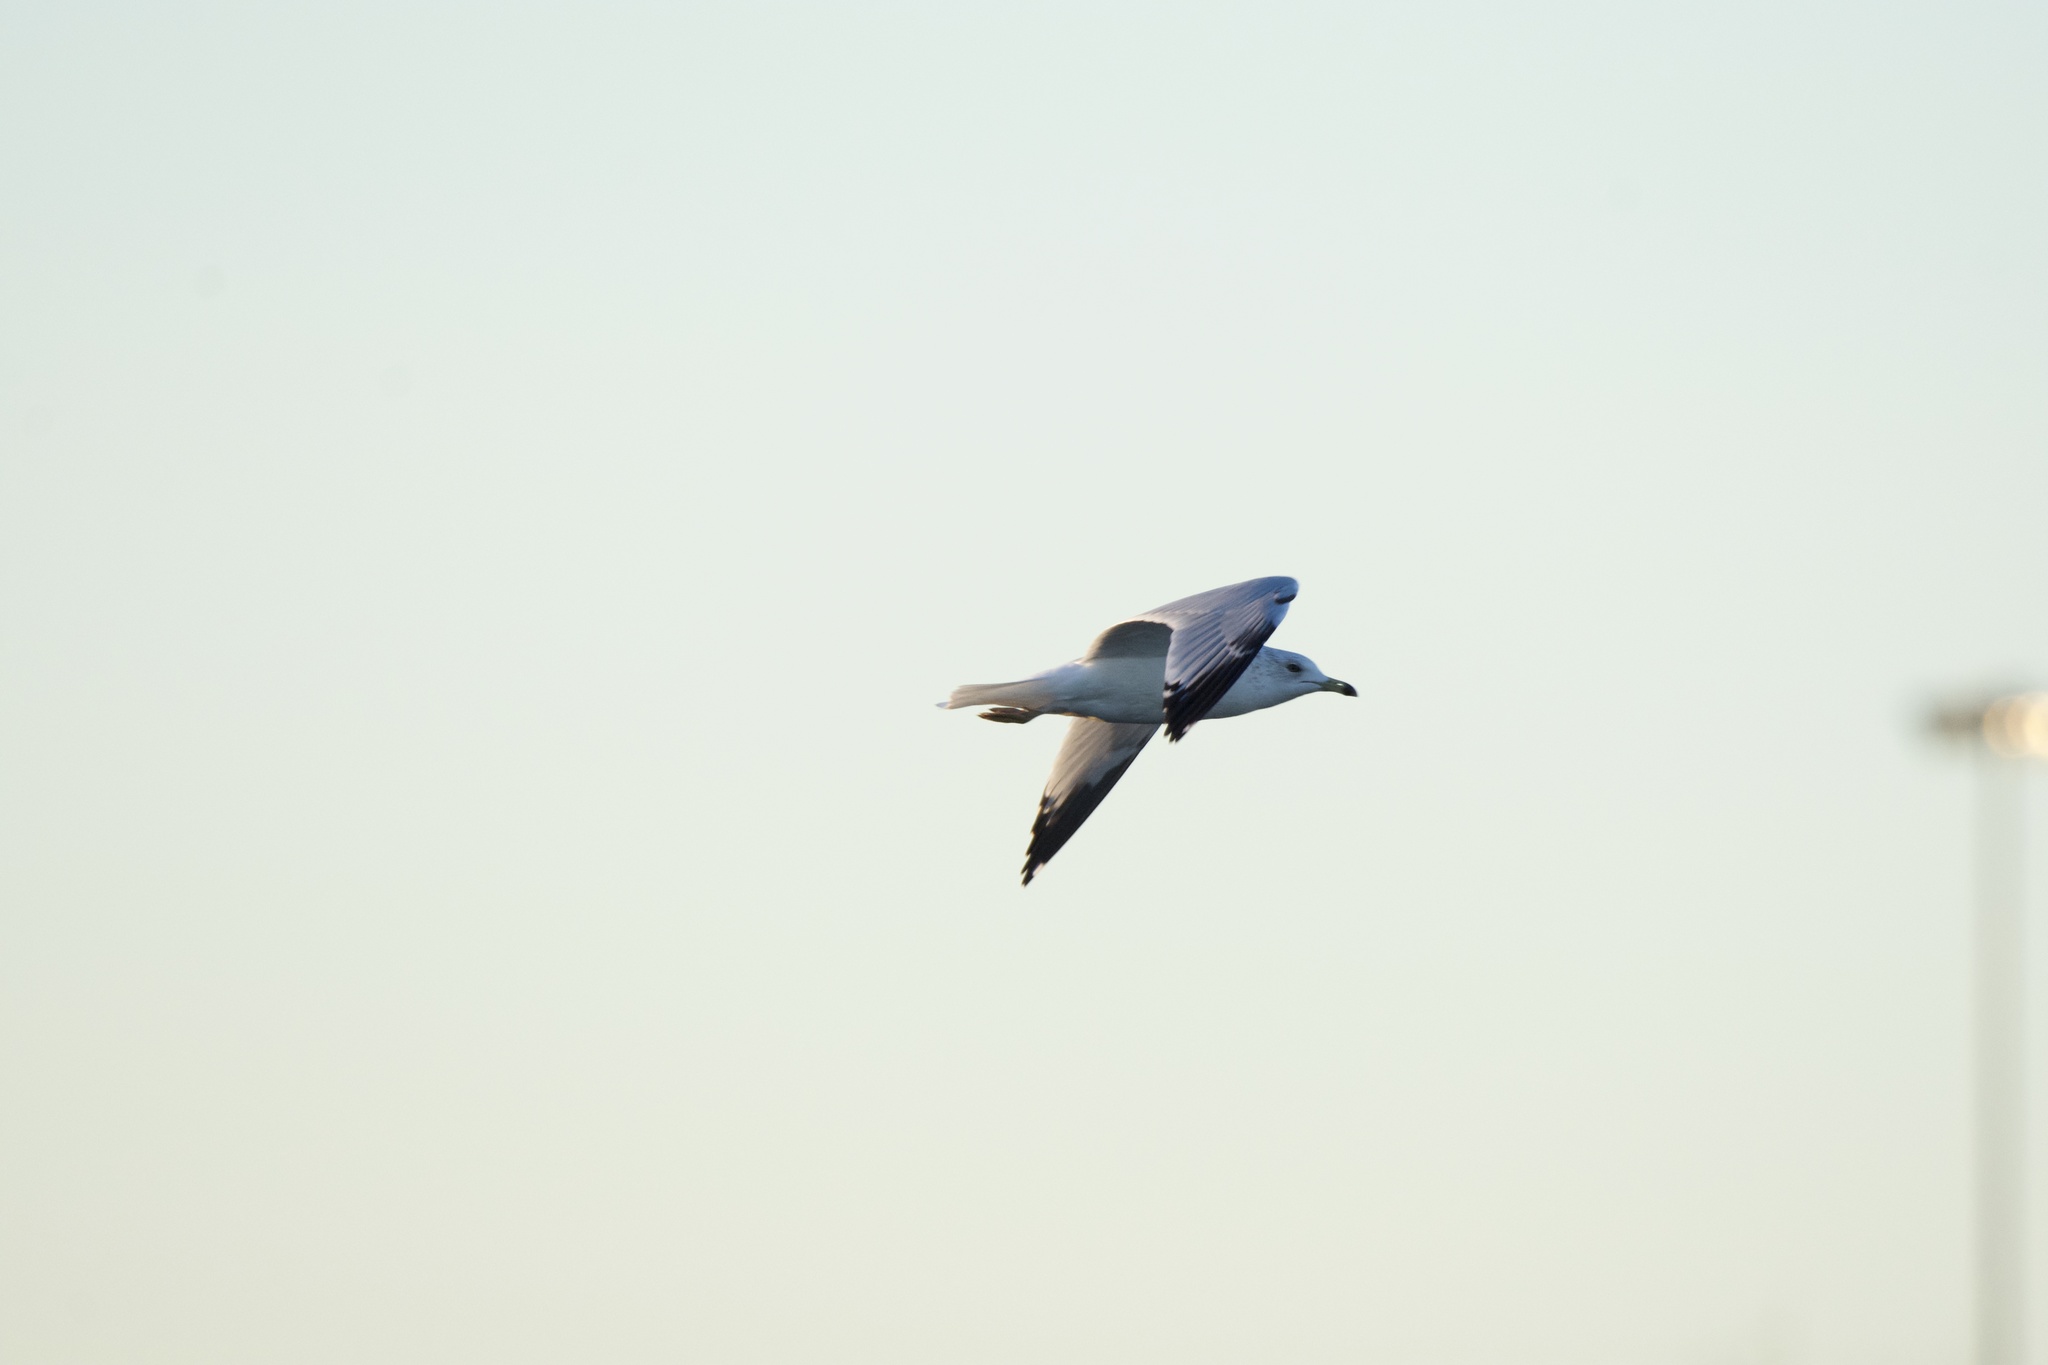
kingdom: Animalia
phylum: Chordata
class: Aves
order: Charadriiformes
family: Laridae
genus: Larus
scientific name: Larus delawarensis
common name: Ring-billed gull
